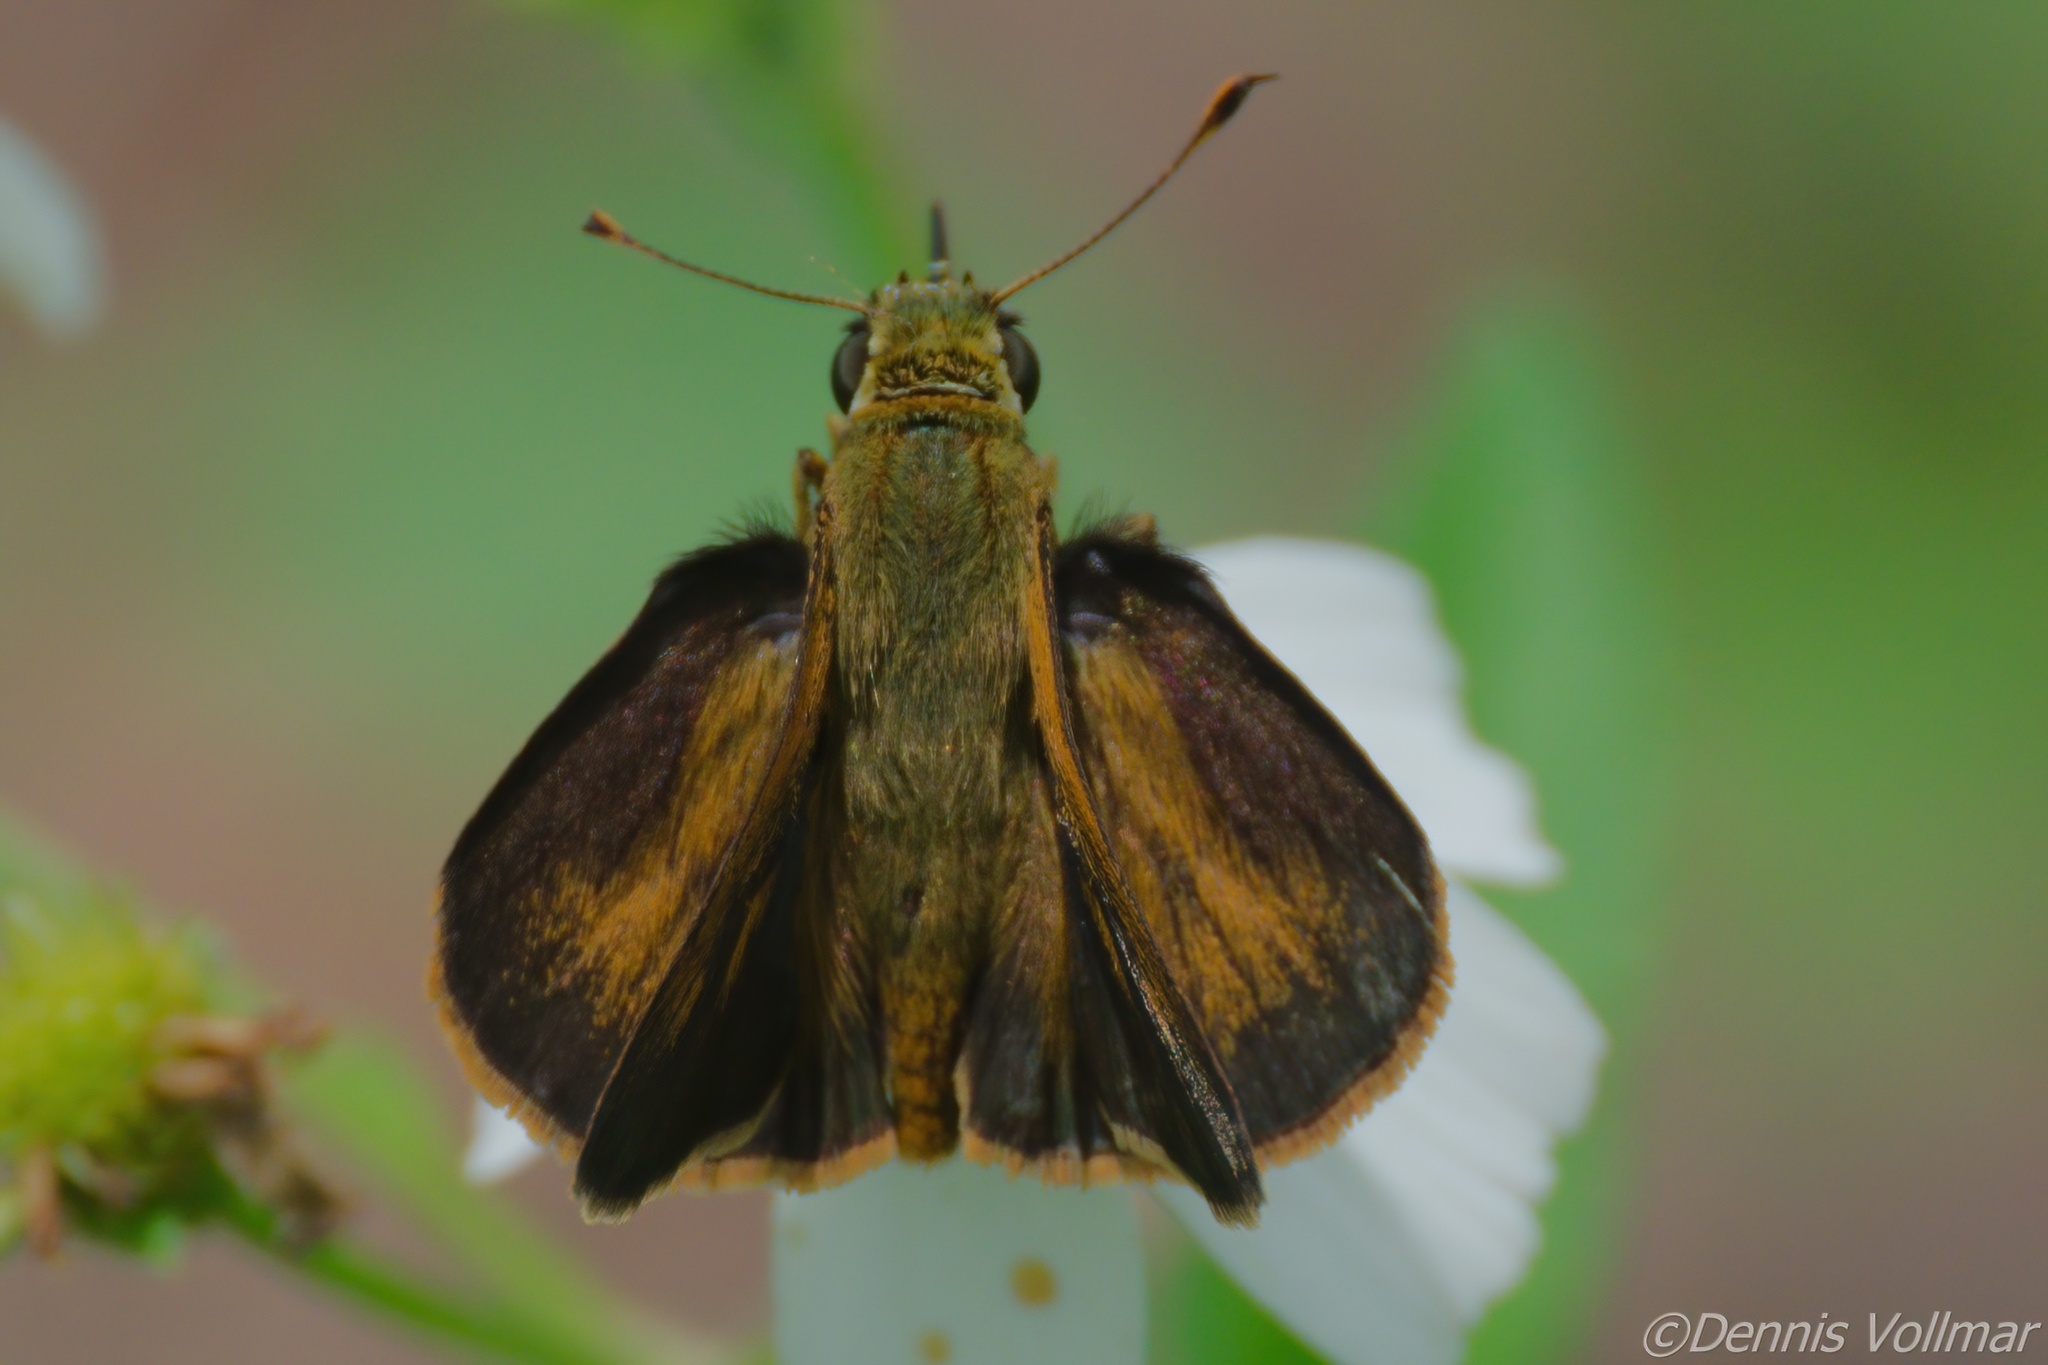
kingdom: Animalia
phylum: Arthropoda
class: Insecta
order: Lepidoptera
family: Hesperiidae
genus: Polites
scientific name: Polites otho
